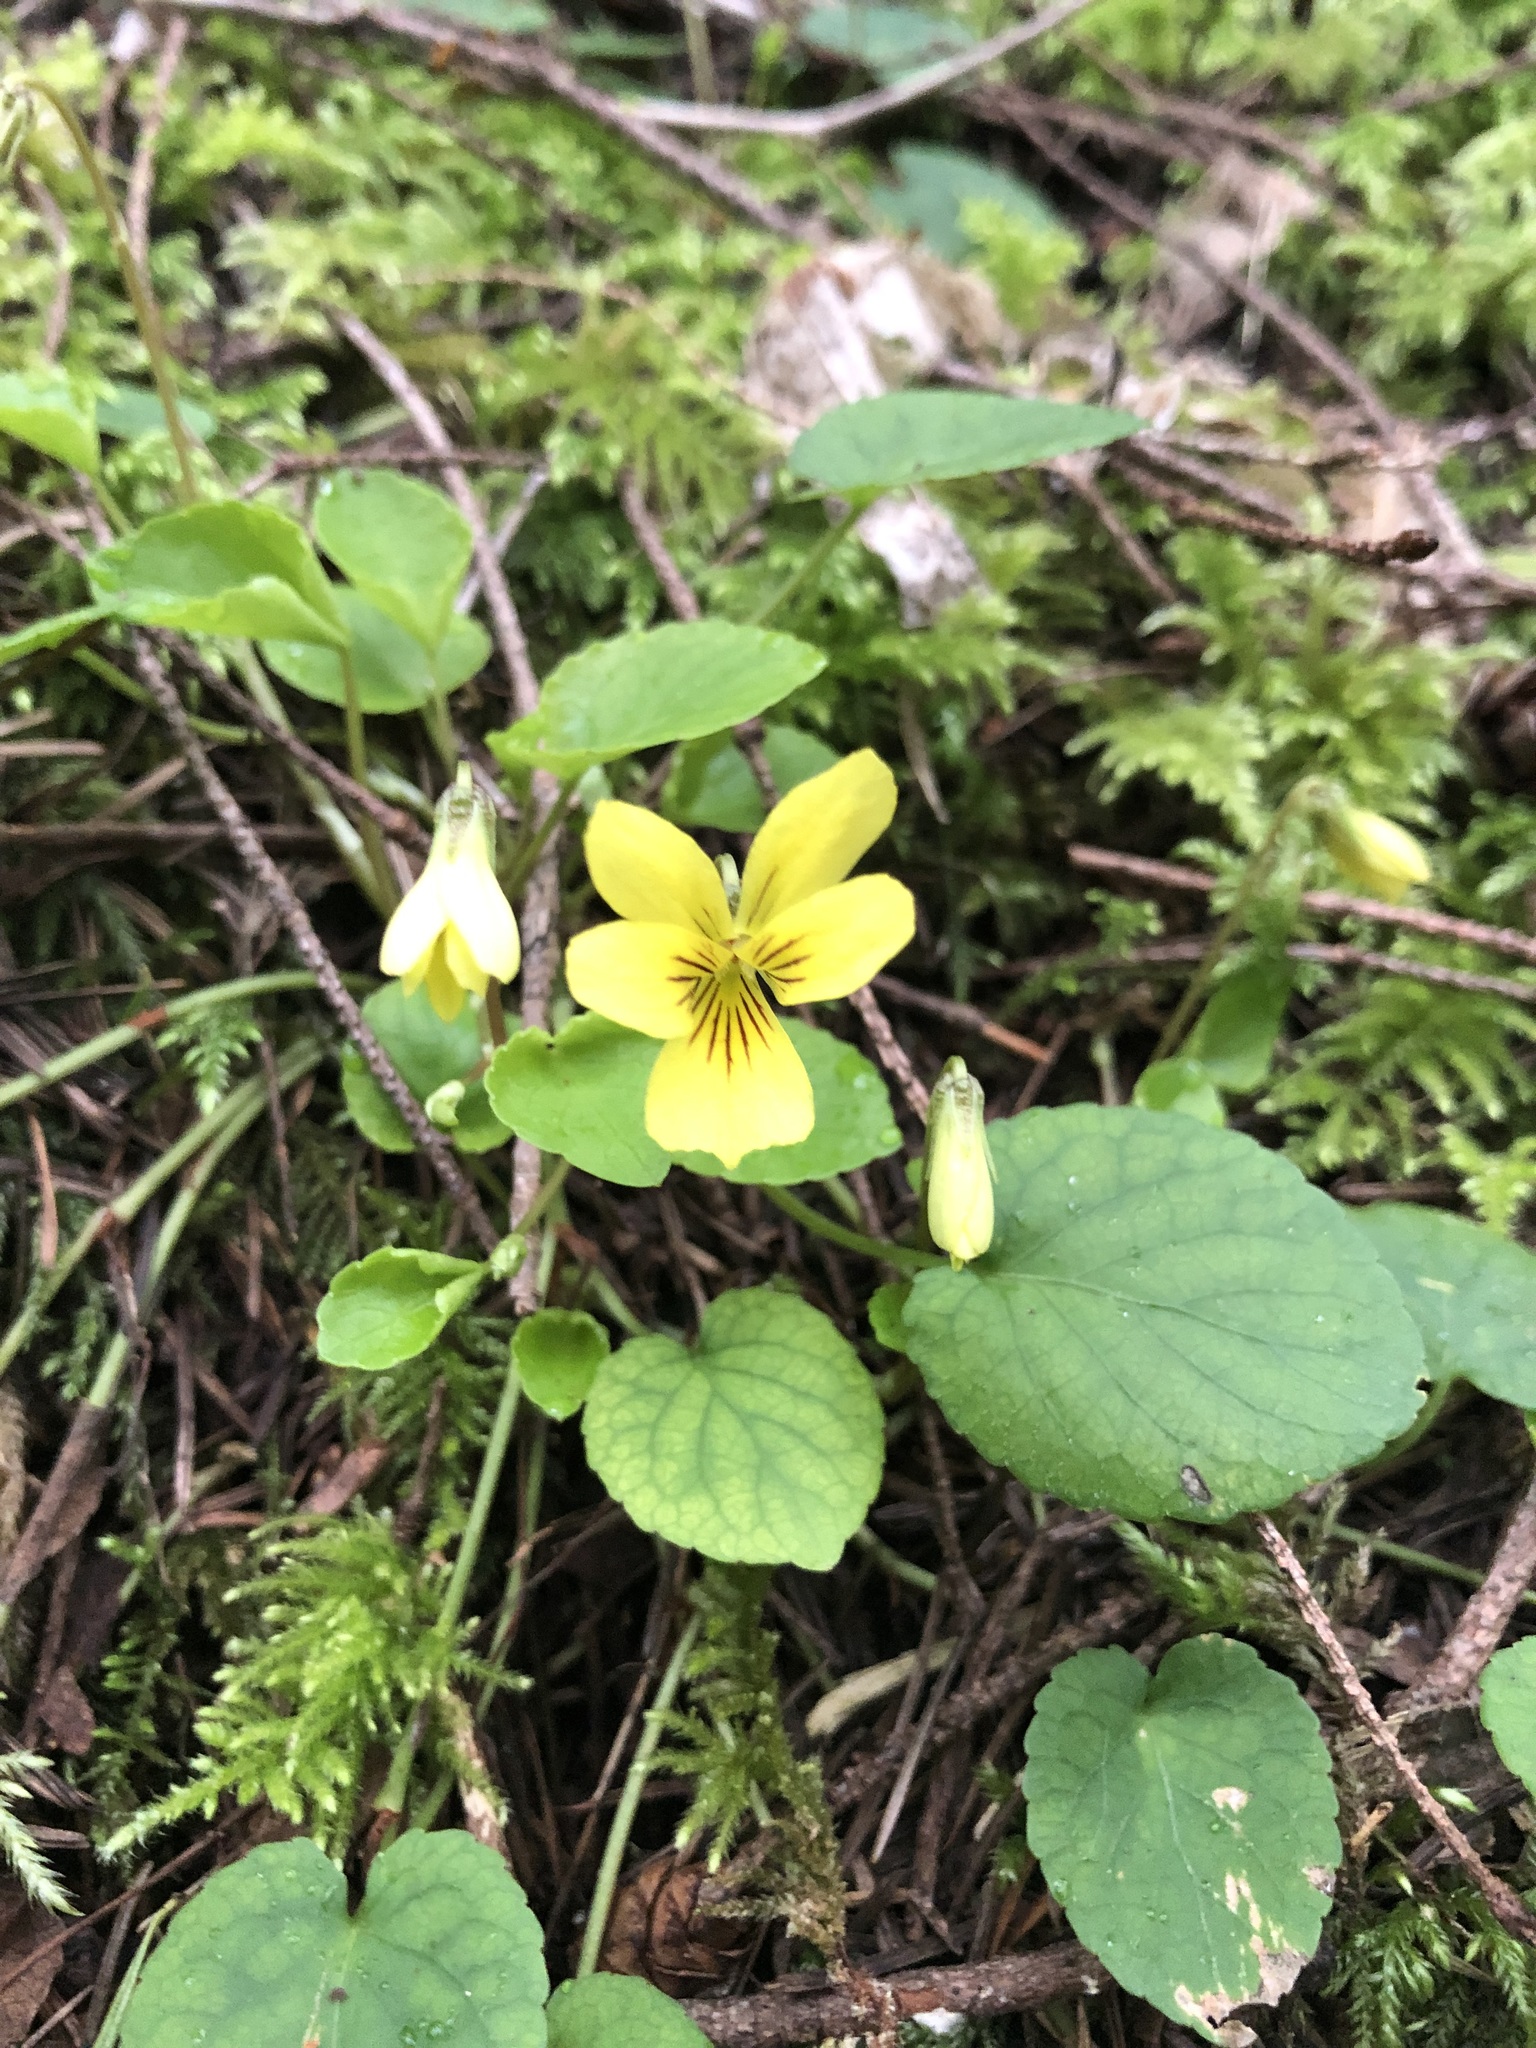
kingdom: Plantae
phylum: Tracheophyta
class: Magnoliopsida
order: Malpighiales
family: Violaceae
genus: Viola
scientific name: Viola sempervirens
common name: Evergreen violet
